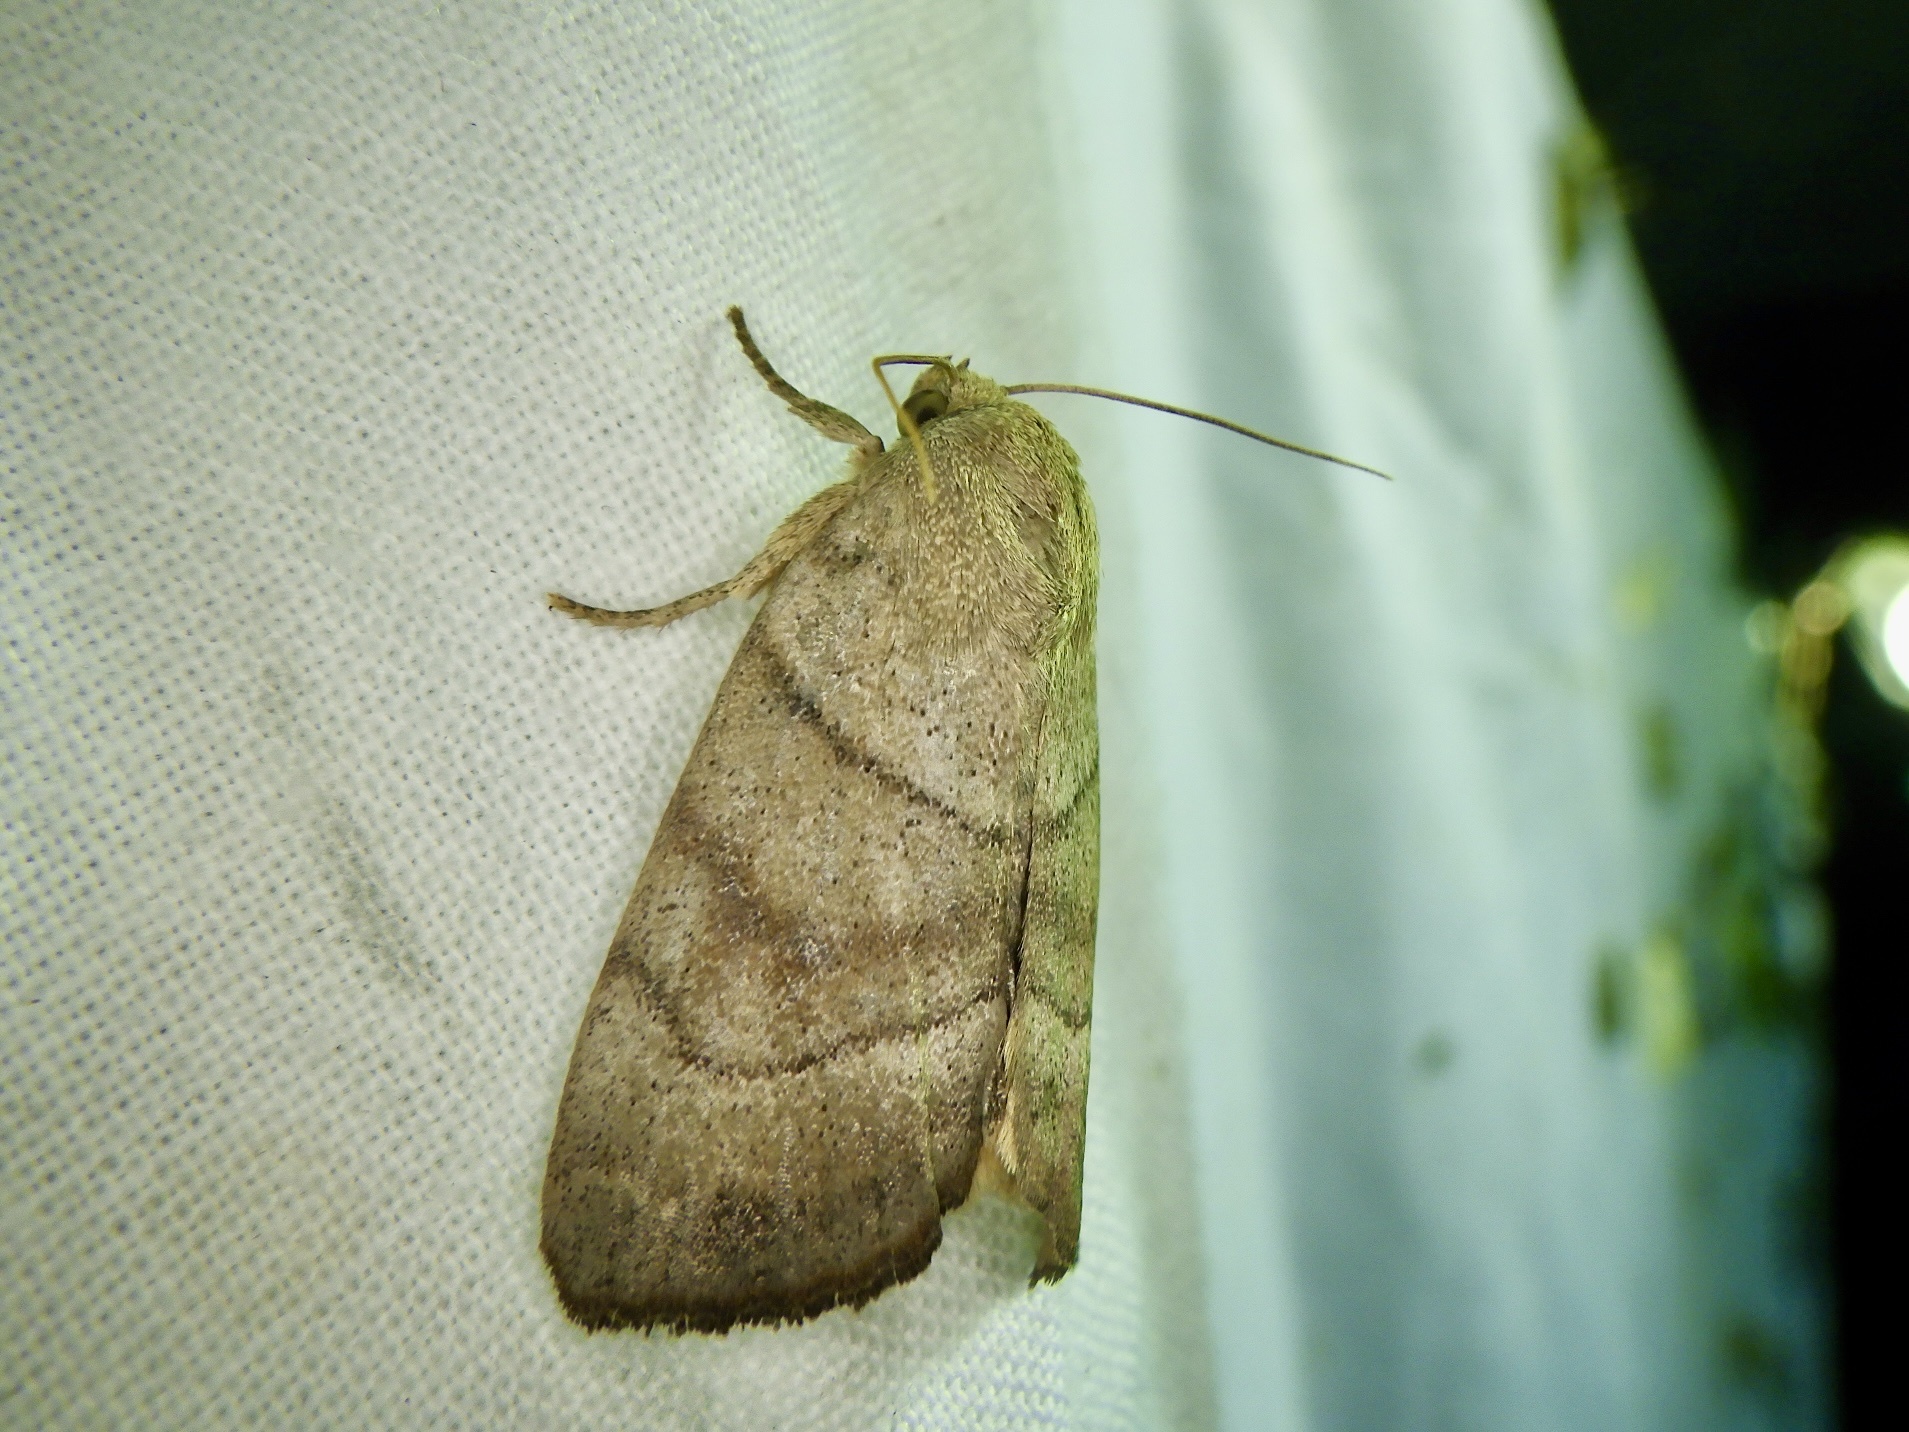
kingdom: Animalia
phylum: Arthropoda
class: Insecta
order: Lepidoptera
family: Noctuidae
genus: Cosmia
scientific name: Cosmia moderata
